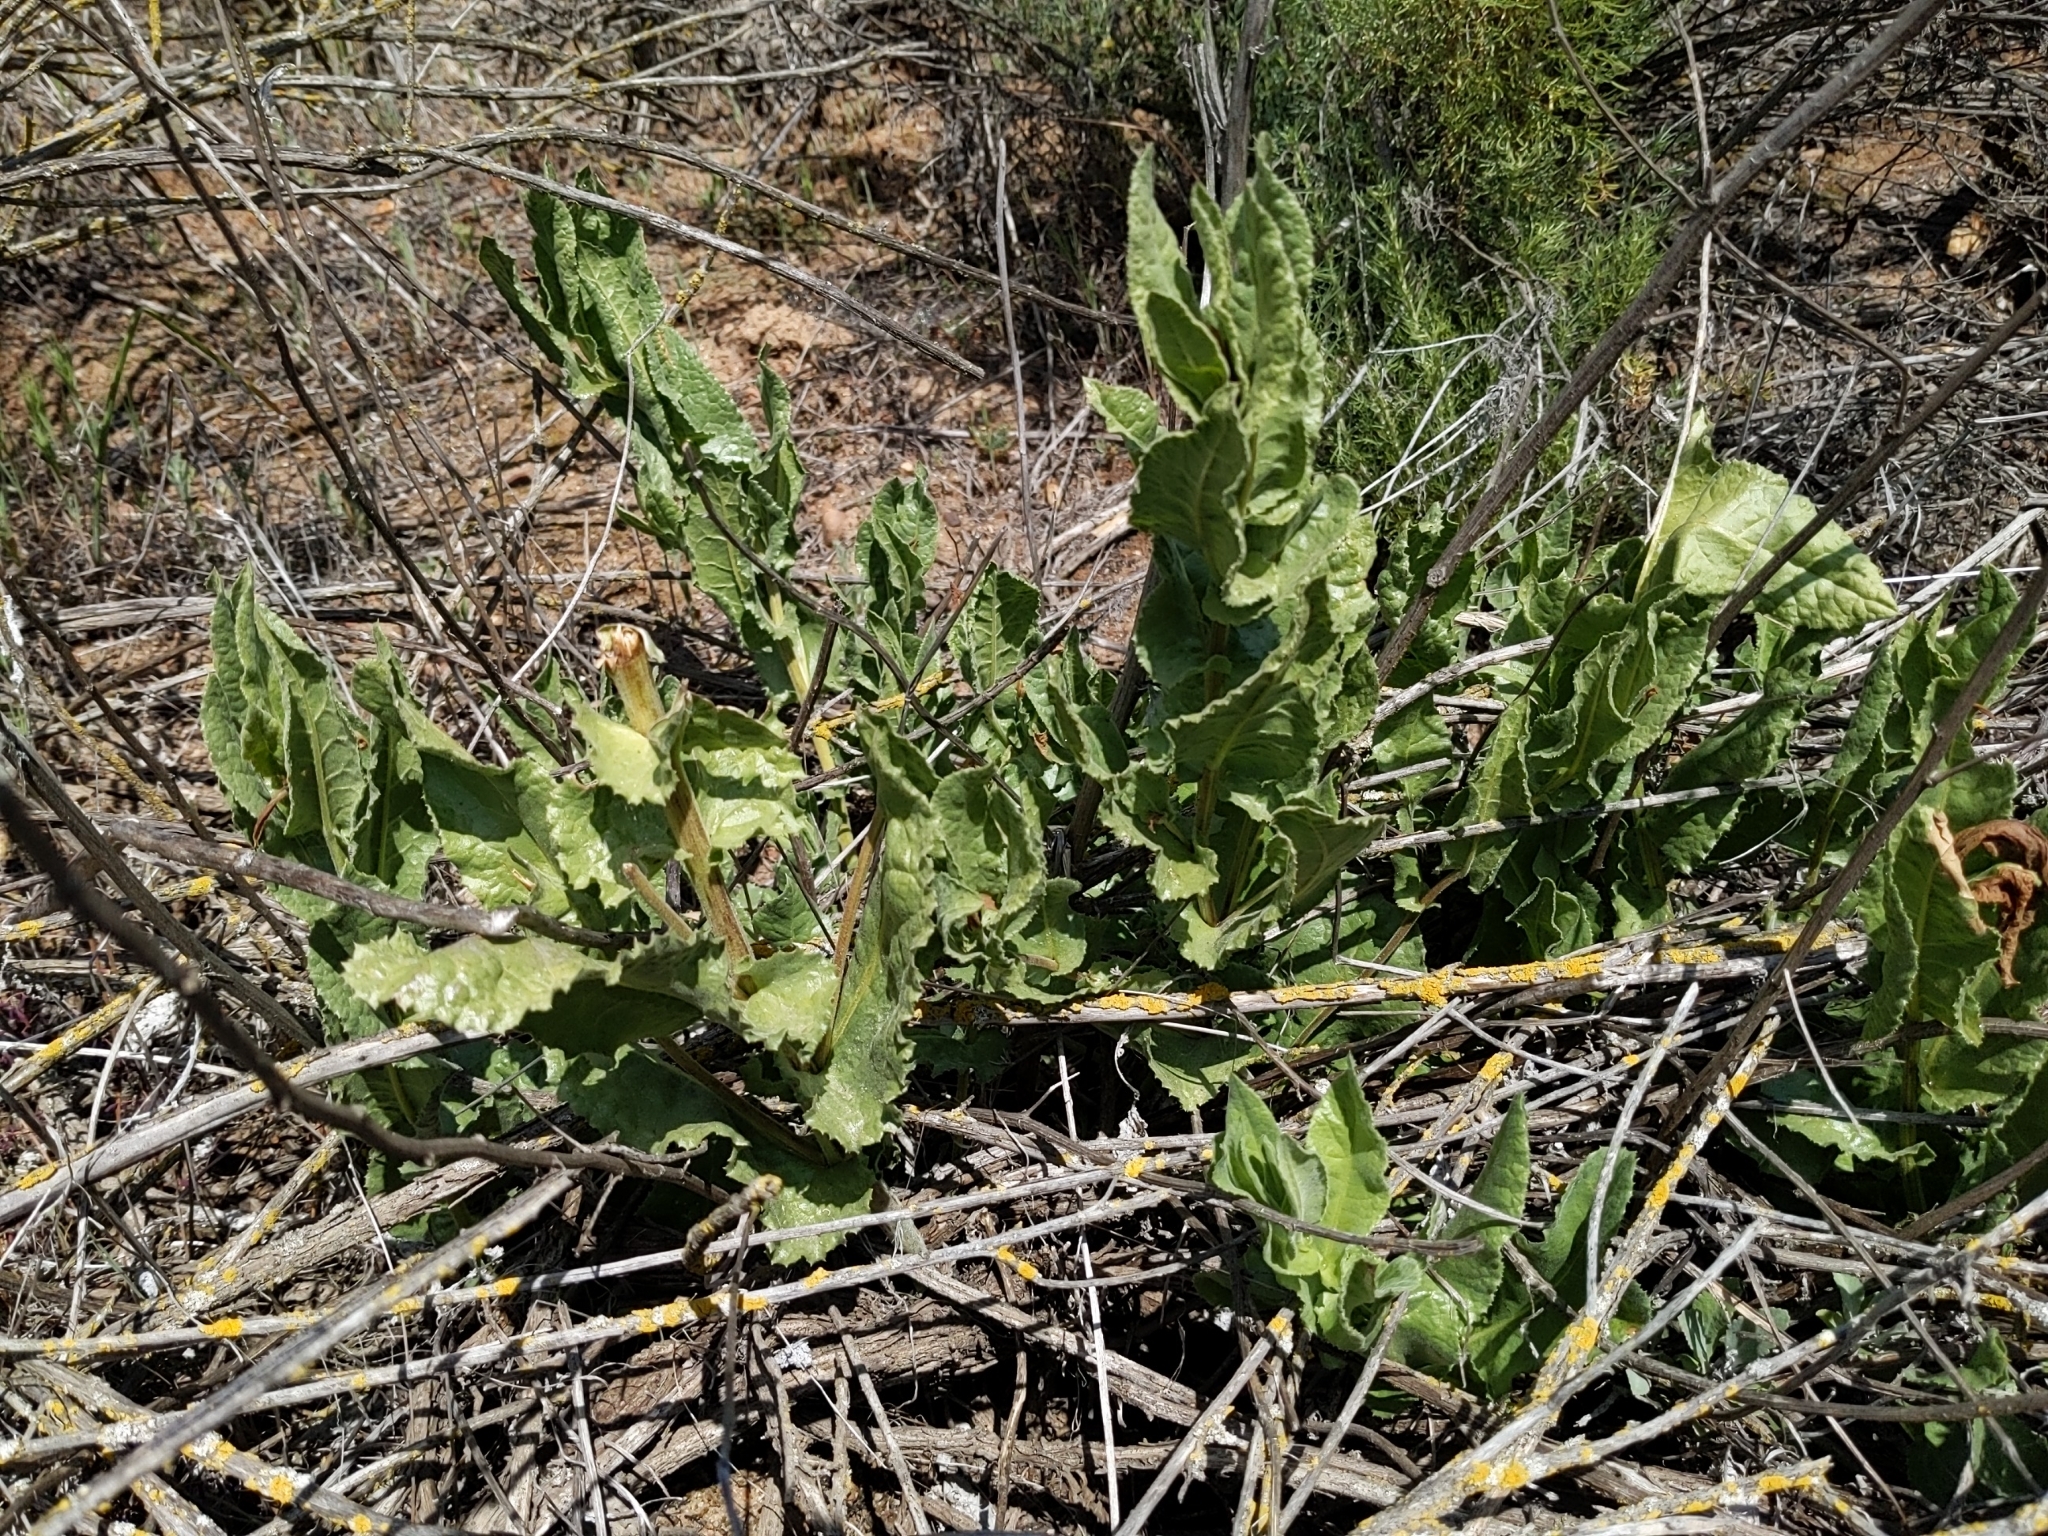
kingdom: Plantae
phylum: Tracheophyta
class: Magnoliopsida
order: Asterales
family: Asteraceae
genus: Acourtia
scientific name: Acourtia microcephala
